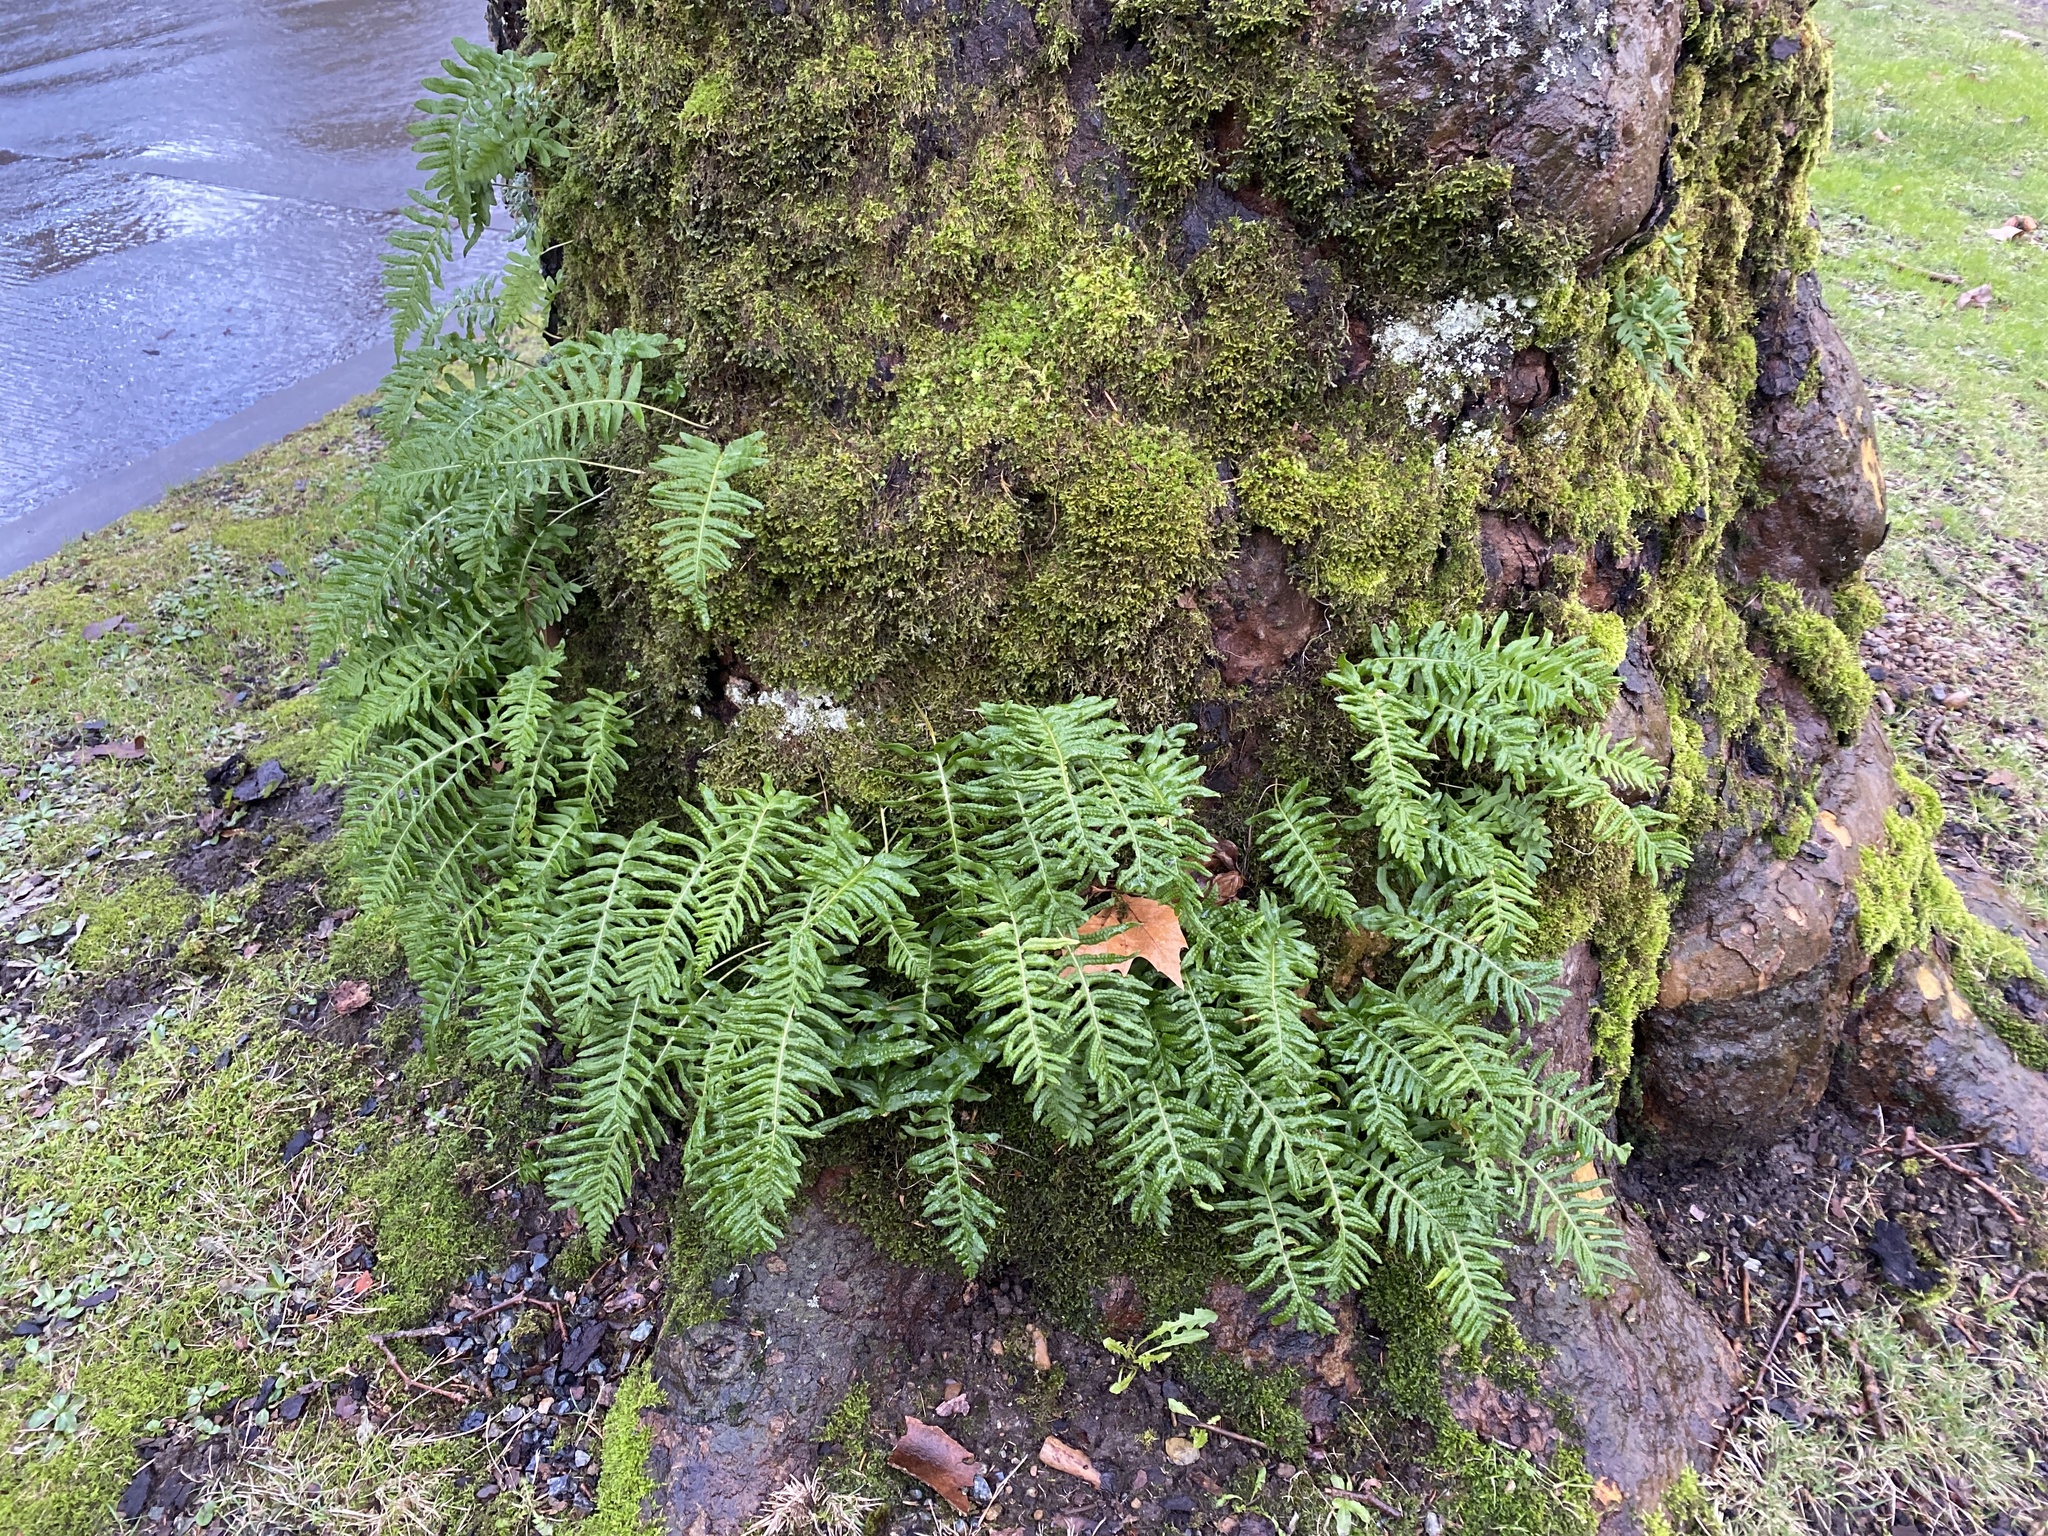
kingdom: Plantae
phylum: Tracheophyta
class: Polypodiopsida
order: Polypodiales
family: Polypodiaceae
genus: Polypodium
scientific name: Polypodium glycyrrhiza
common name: Licorice fern
